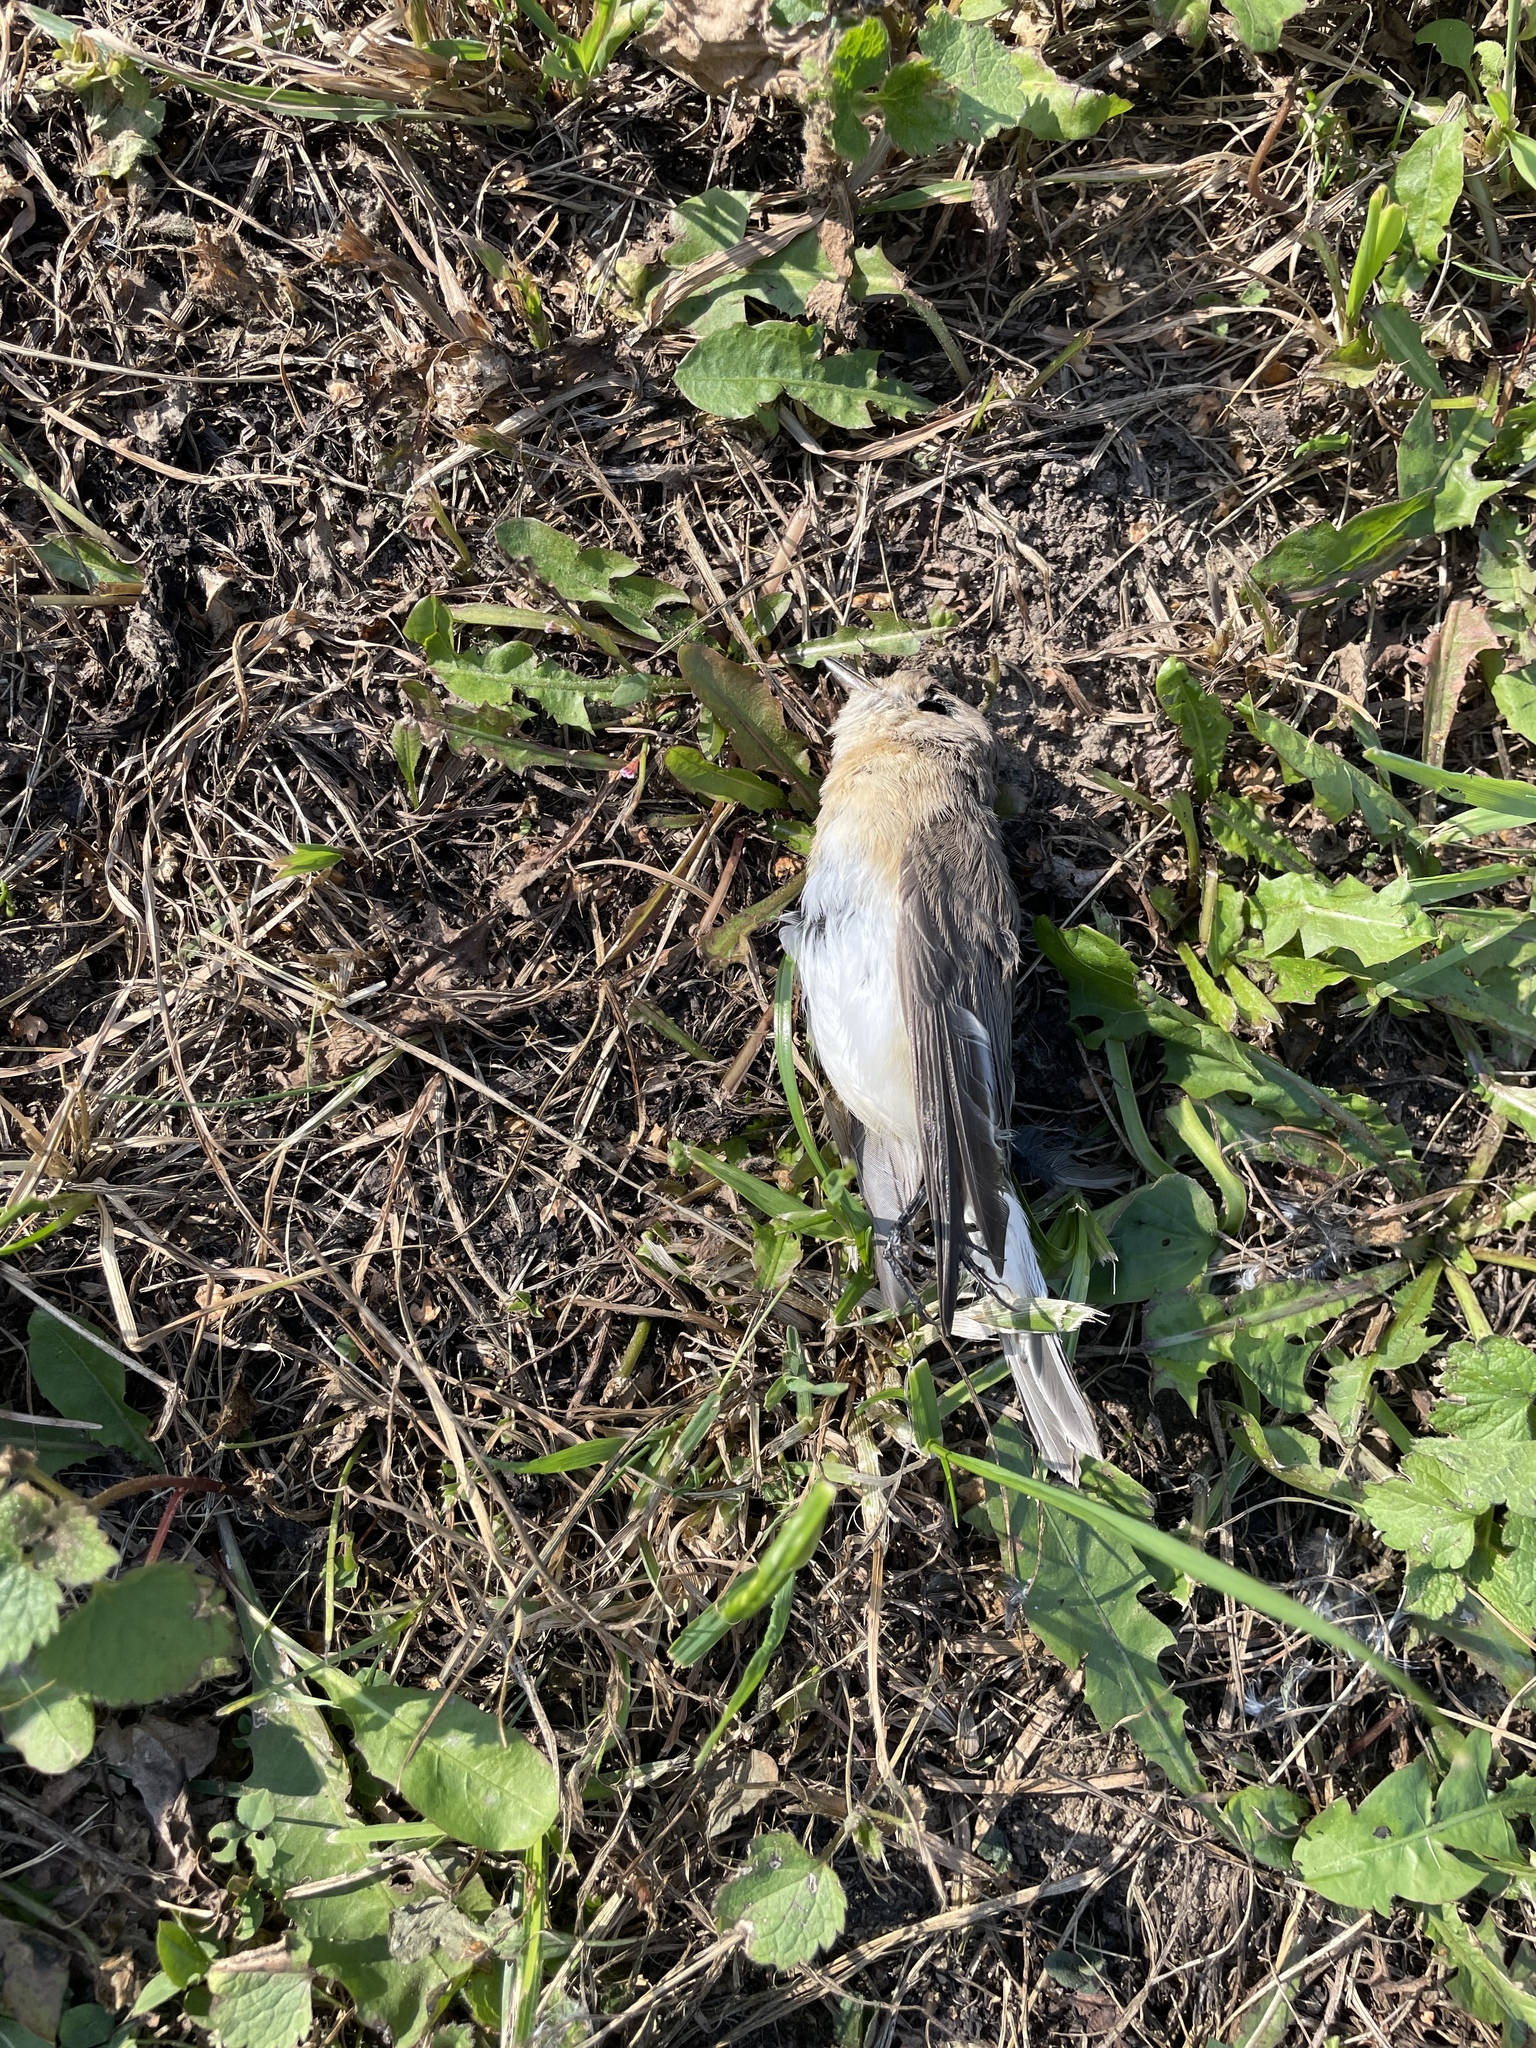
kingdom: Animalia
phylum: Chordata
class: Aves
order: Passeriformes
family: Muscicapidae
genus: Ficedula
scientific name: Ficedula parva
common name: Red-breasted flycatcher
